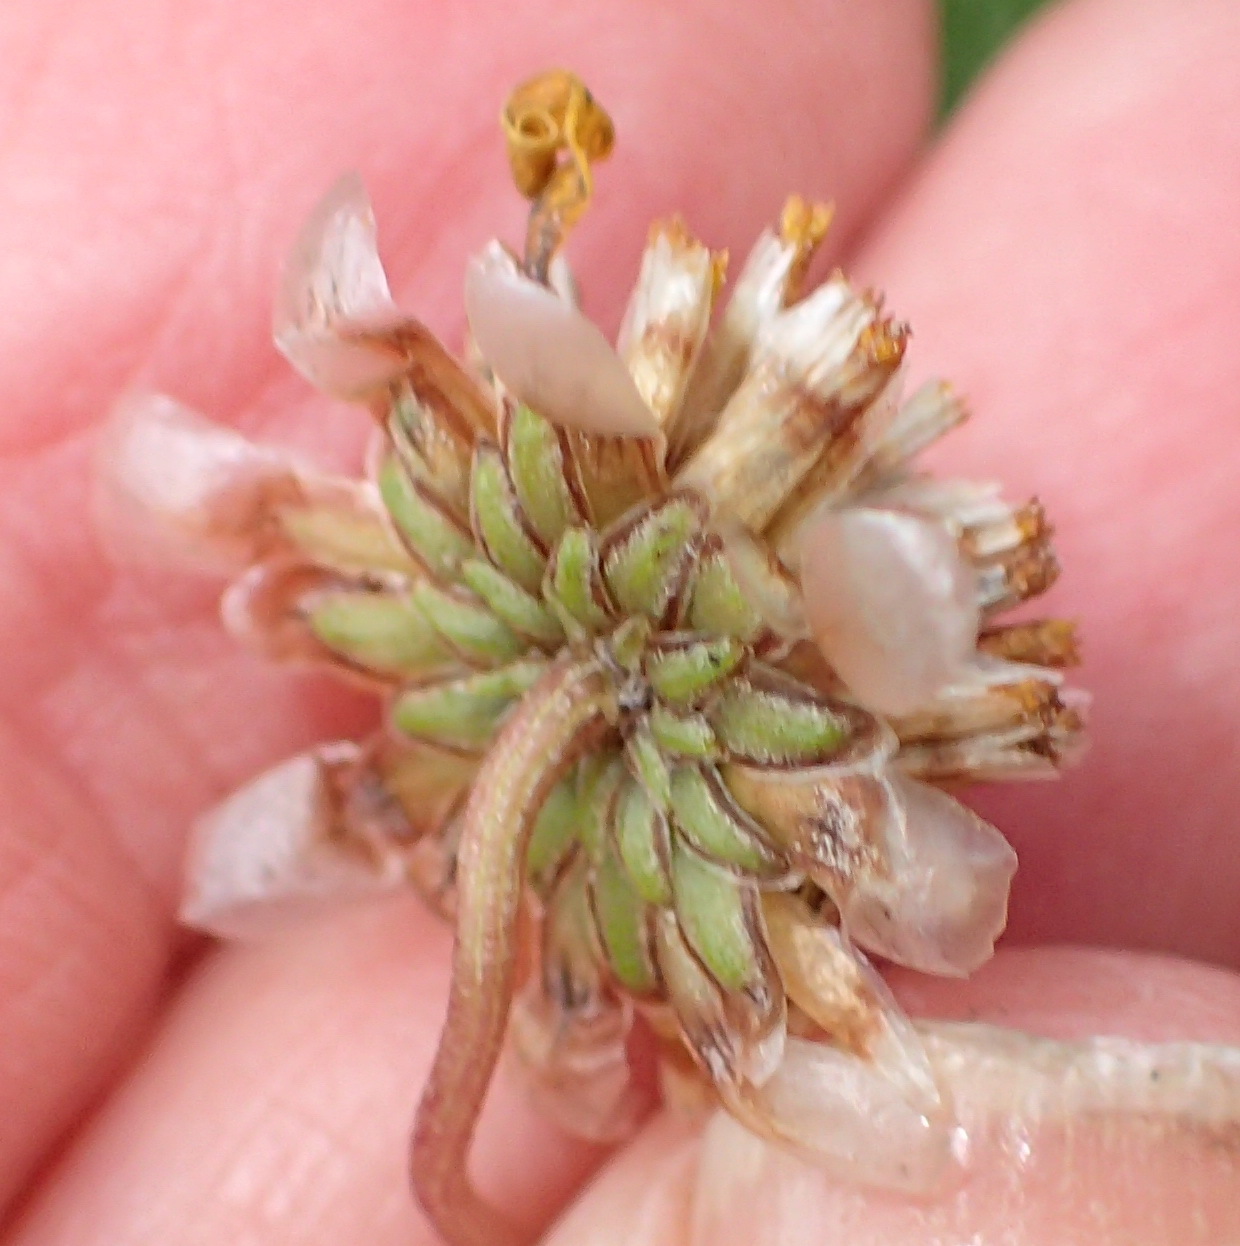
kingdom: Plantae
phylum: Tracheophyta
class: Magnoliopsida
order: Asterales
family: Asteraceae
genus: Ursinia
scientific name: Ursinia anethoides
